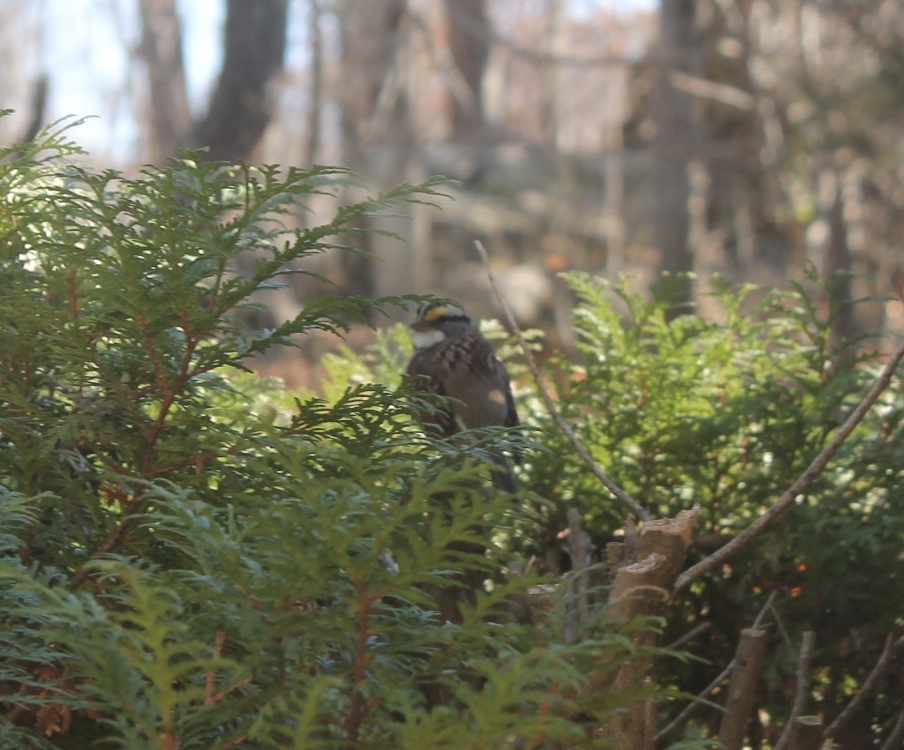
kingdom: Animalia
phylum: Chordata
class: Aves
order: Passeriformes
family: Passerellidae
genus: Zonotrichia
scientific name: Zonotrichia albicollis
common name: White-throated sparrow
